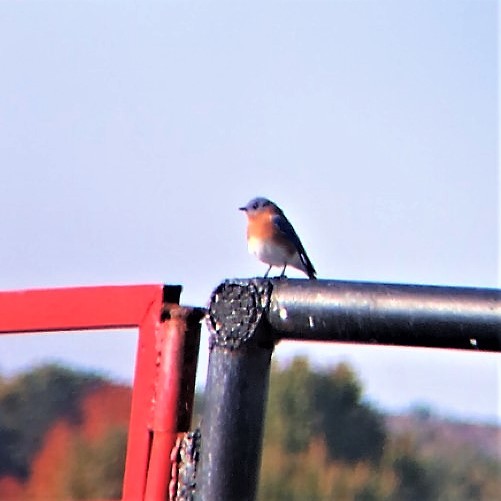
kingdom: Animalia
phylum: Chordata
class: Aves
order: Passeriformes
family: Turdidae
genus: Sialia
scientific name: Sialia sialis
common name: Eastern bluebird
